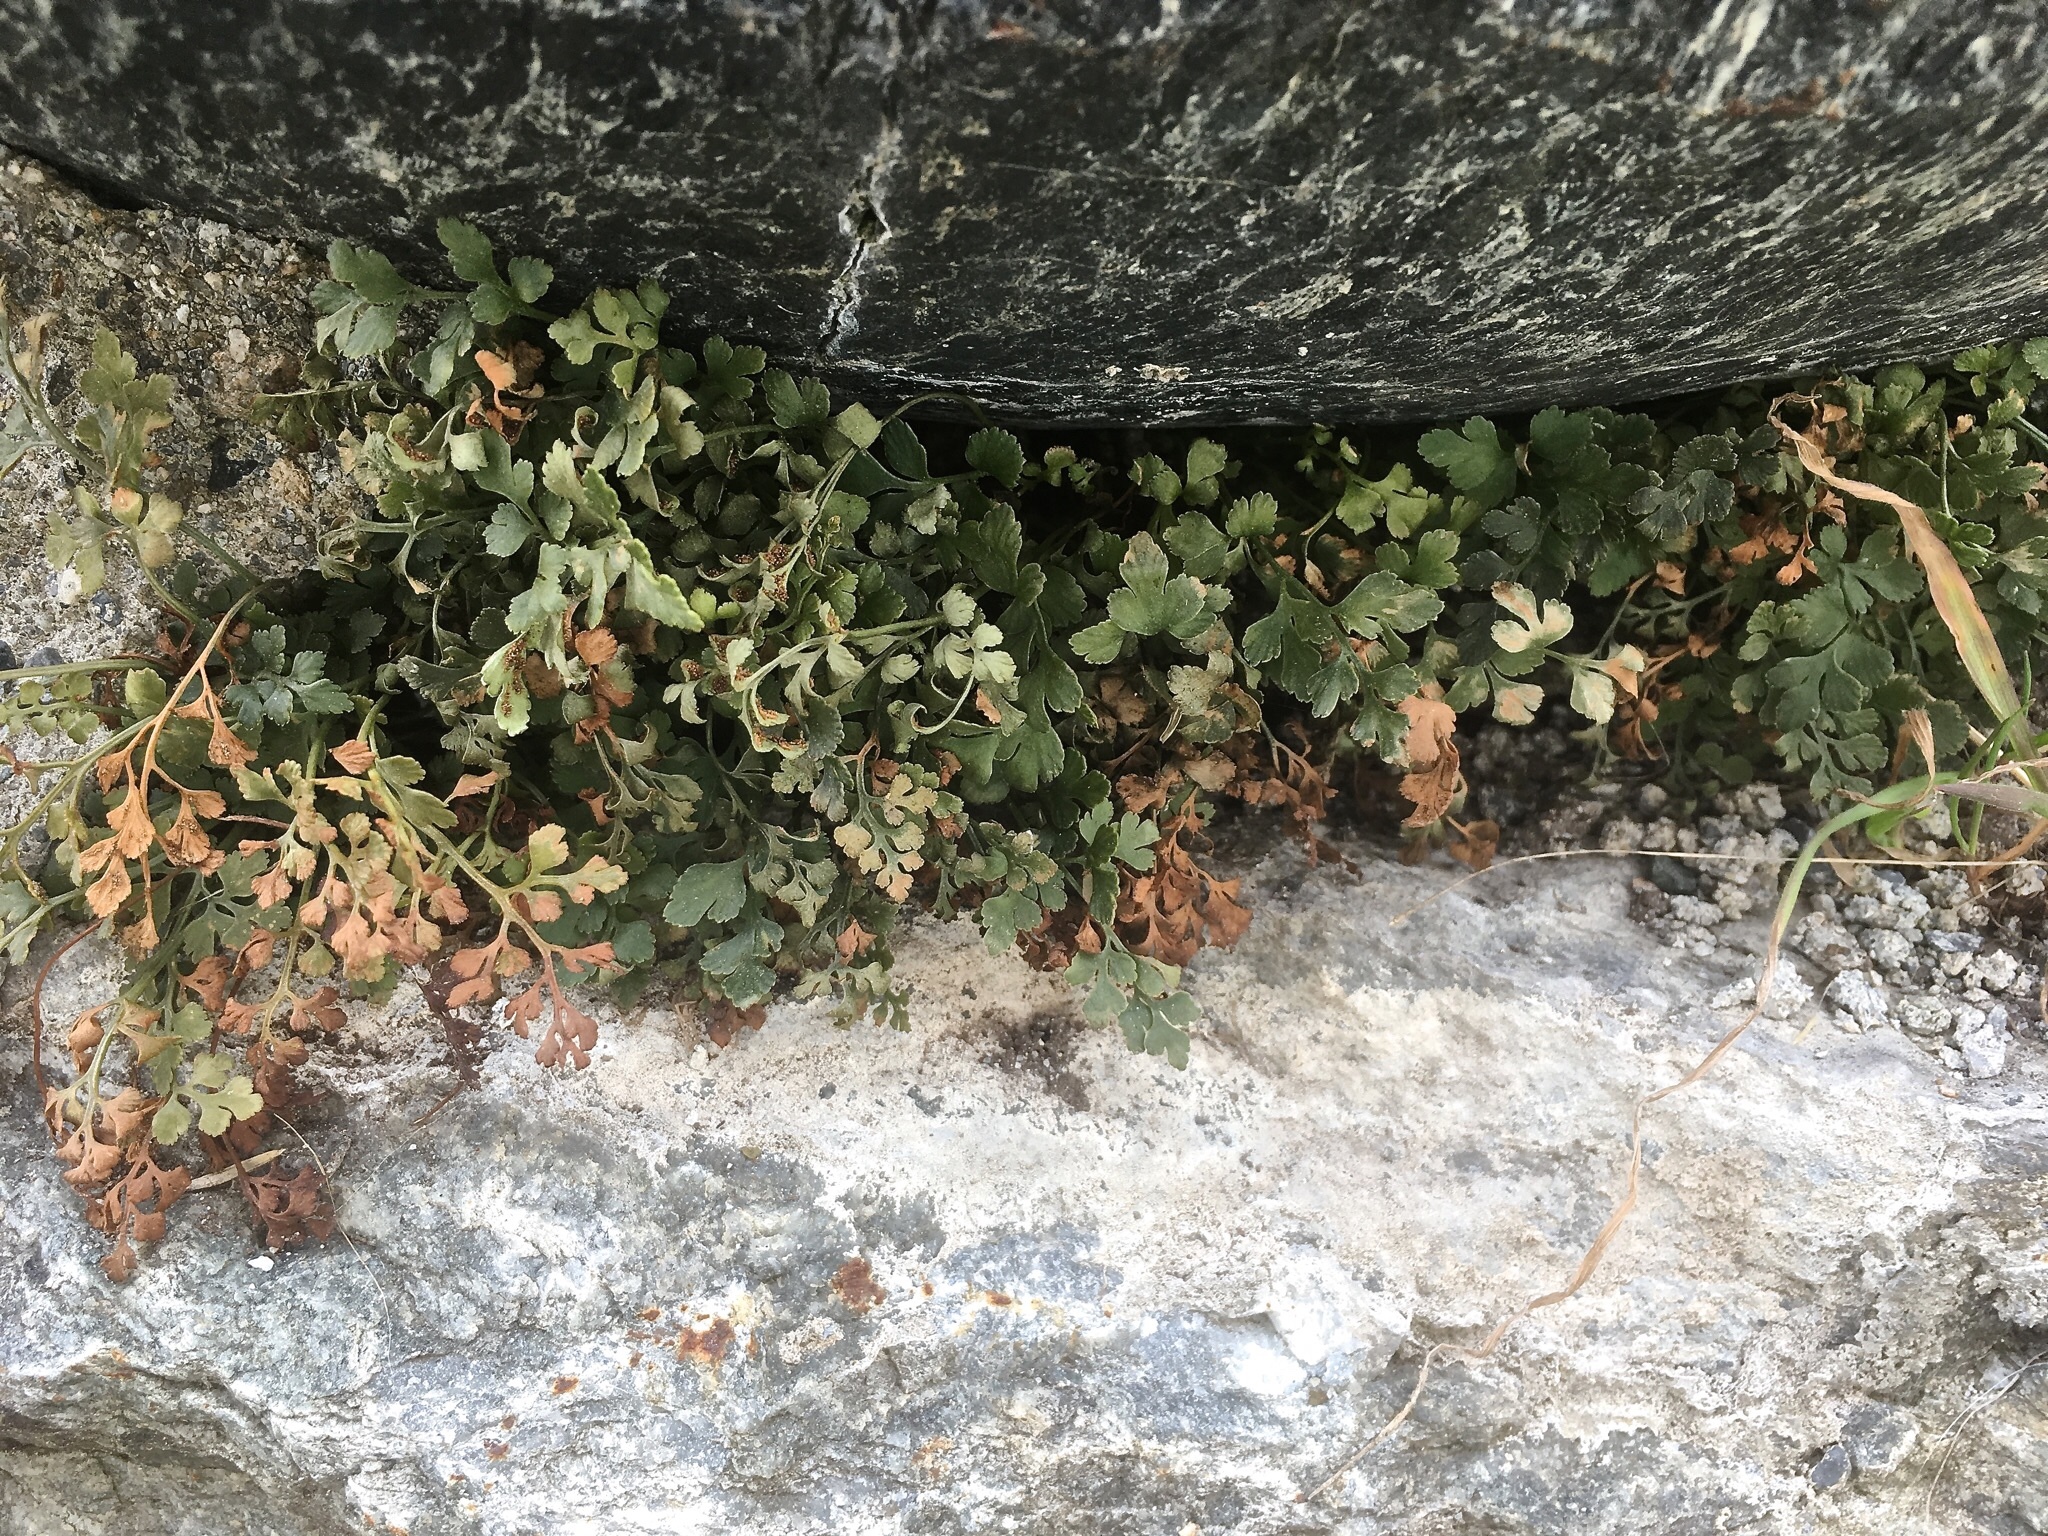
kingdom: Plantae
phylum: Tracheophyta
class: Polypodiopsida
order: Polypodiales
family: Aspleniaceae
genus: Asplenium
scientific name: Asplenium ruta-muraria
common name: Wall-rue
